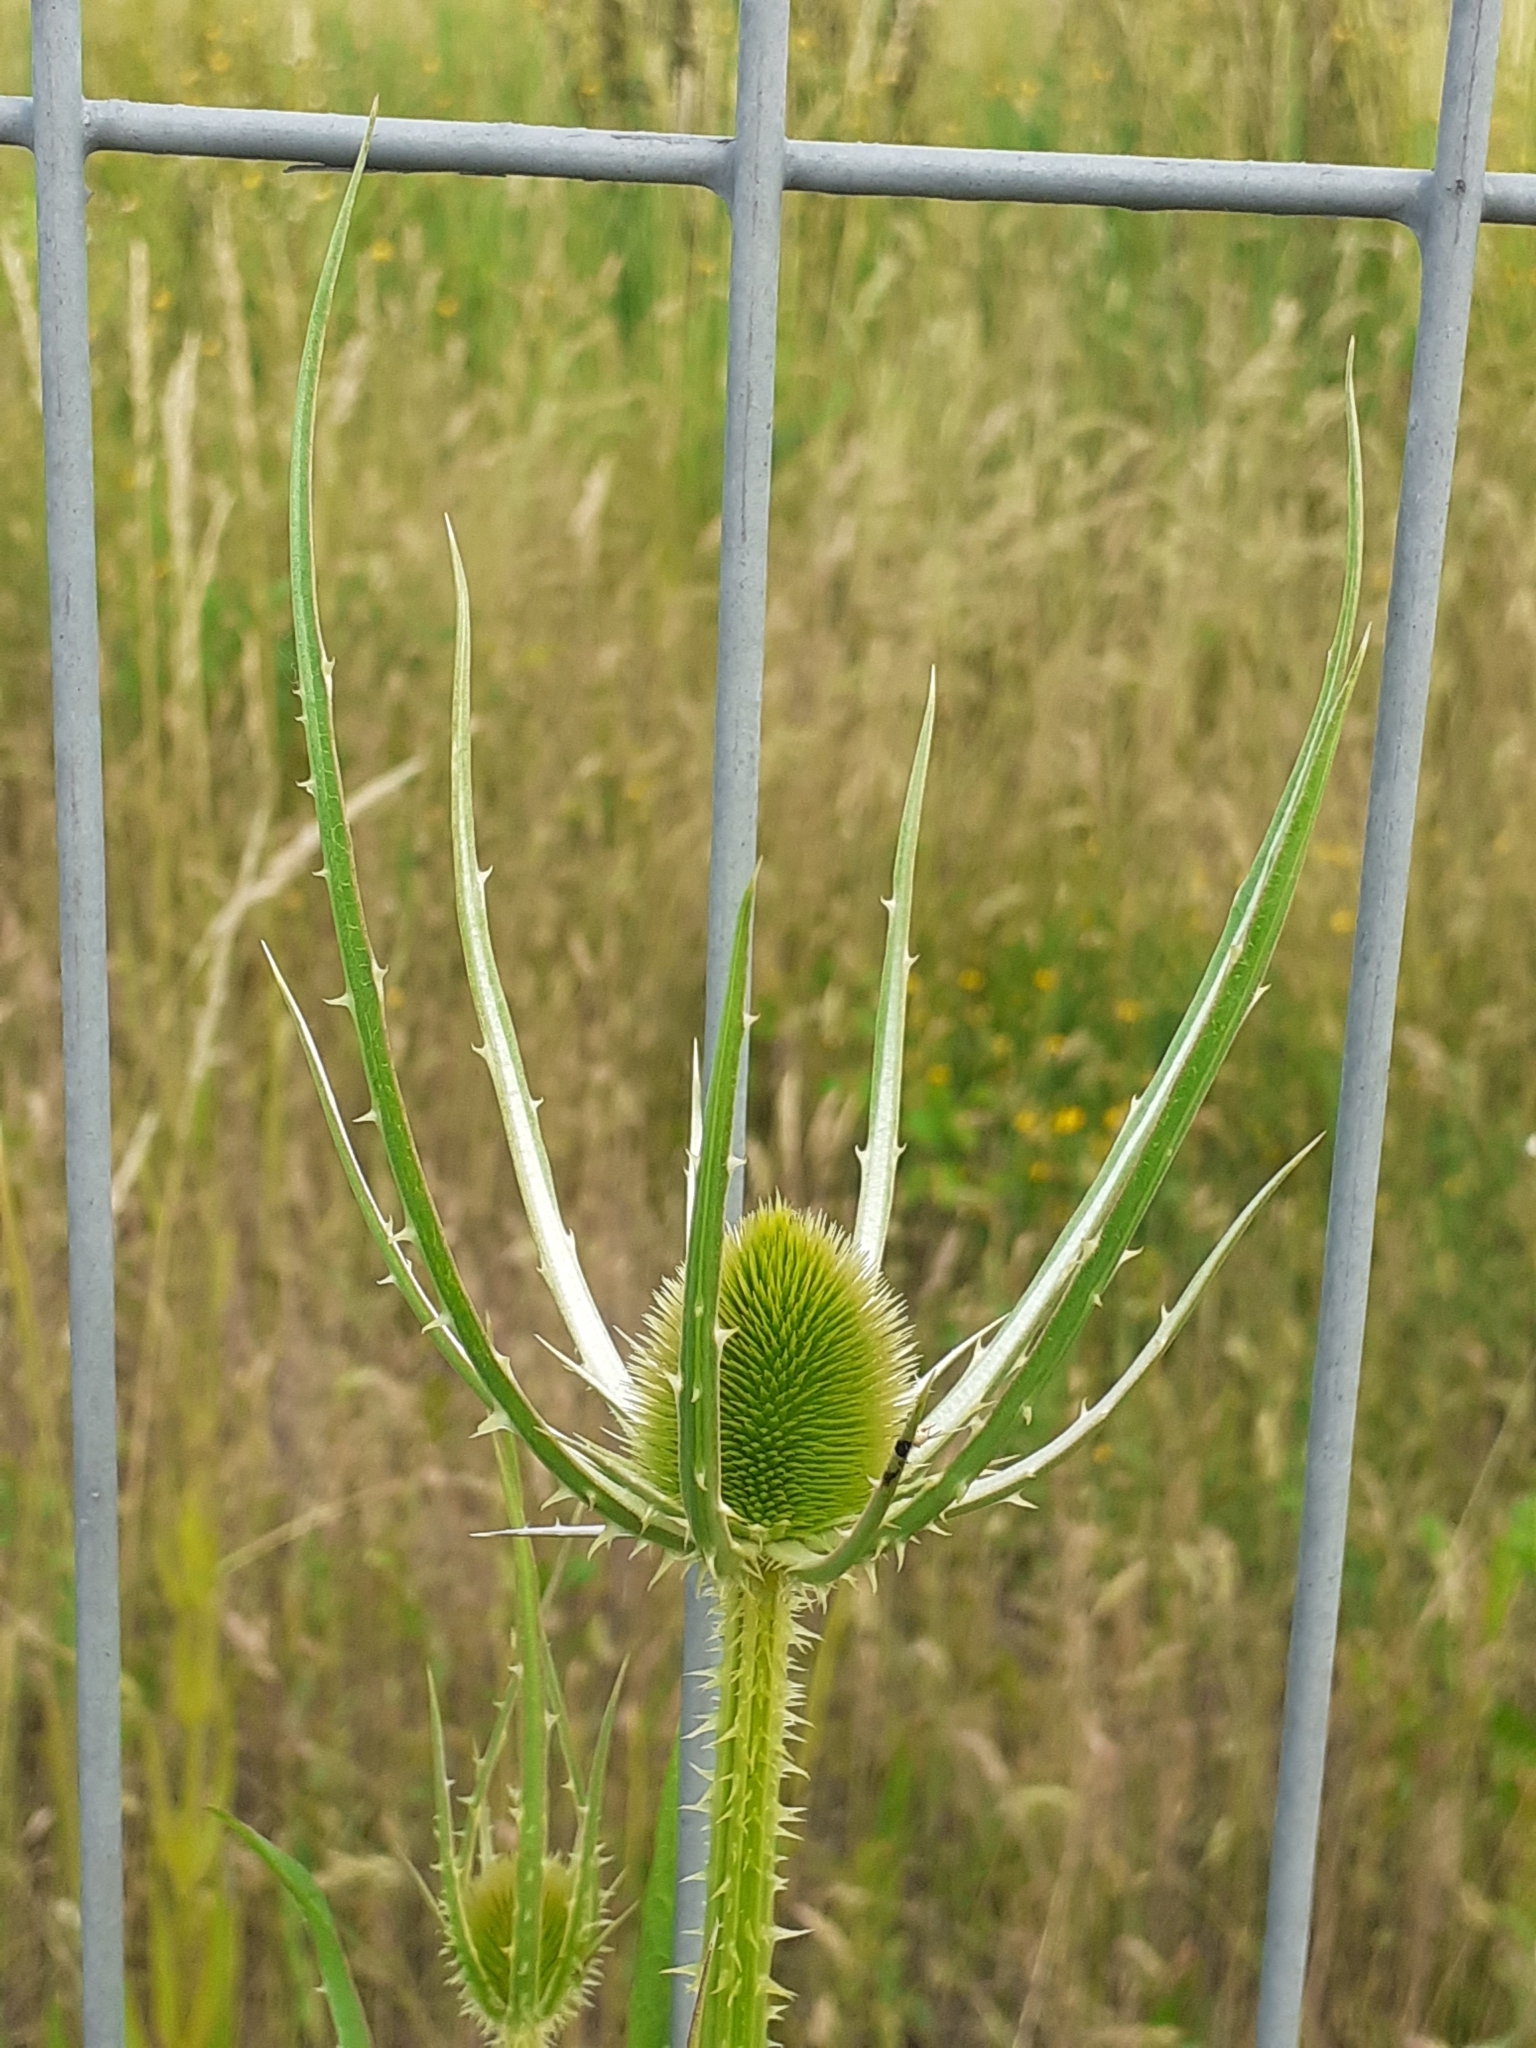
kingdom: Plantae
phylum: Tracheophyta
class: Magnoliopsida
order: Dipsacales
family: Caprifoliaceae
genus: Dipsacus
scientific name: Dipsacus fullonum
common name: Teasel
